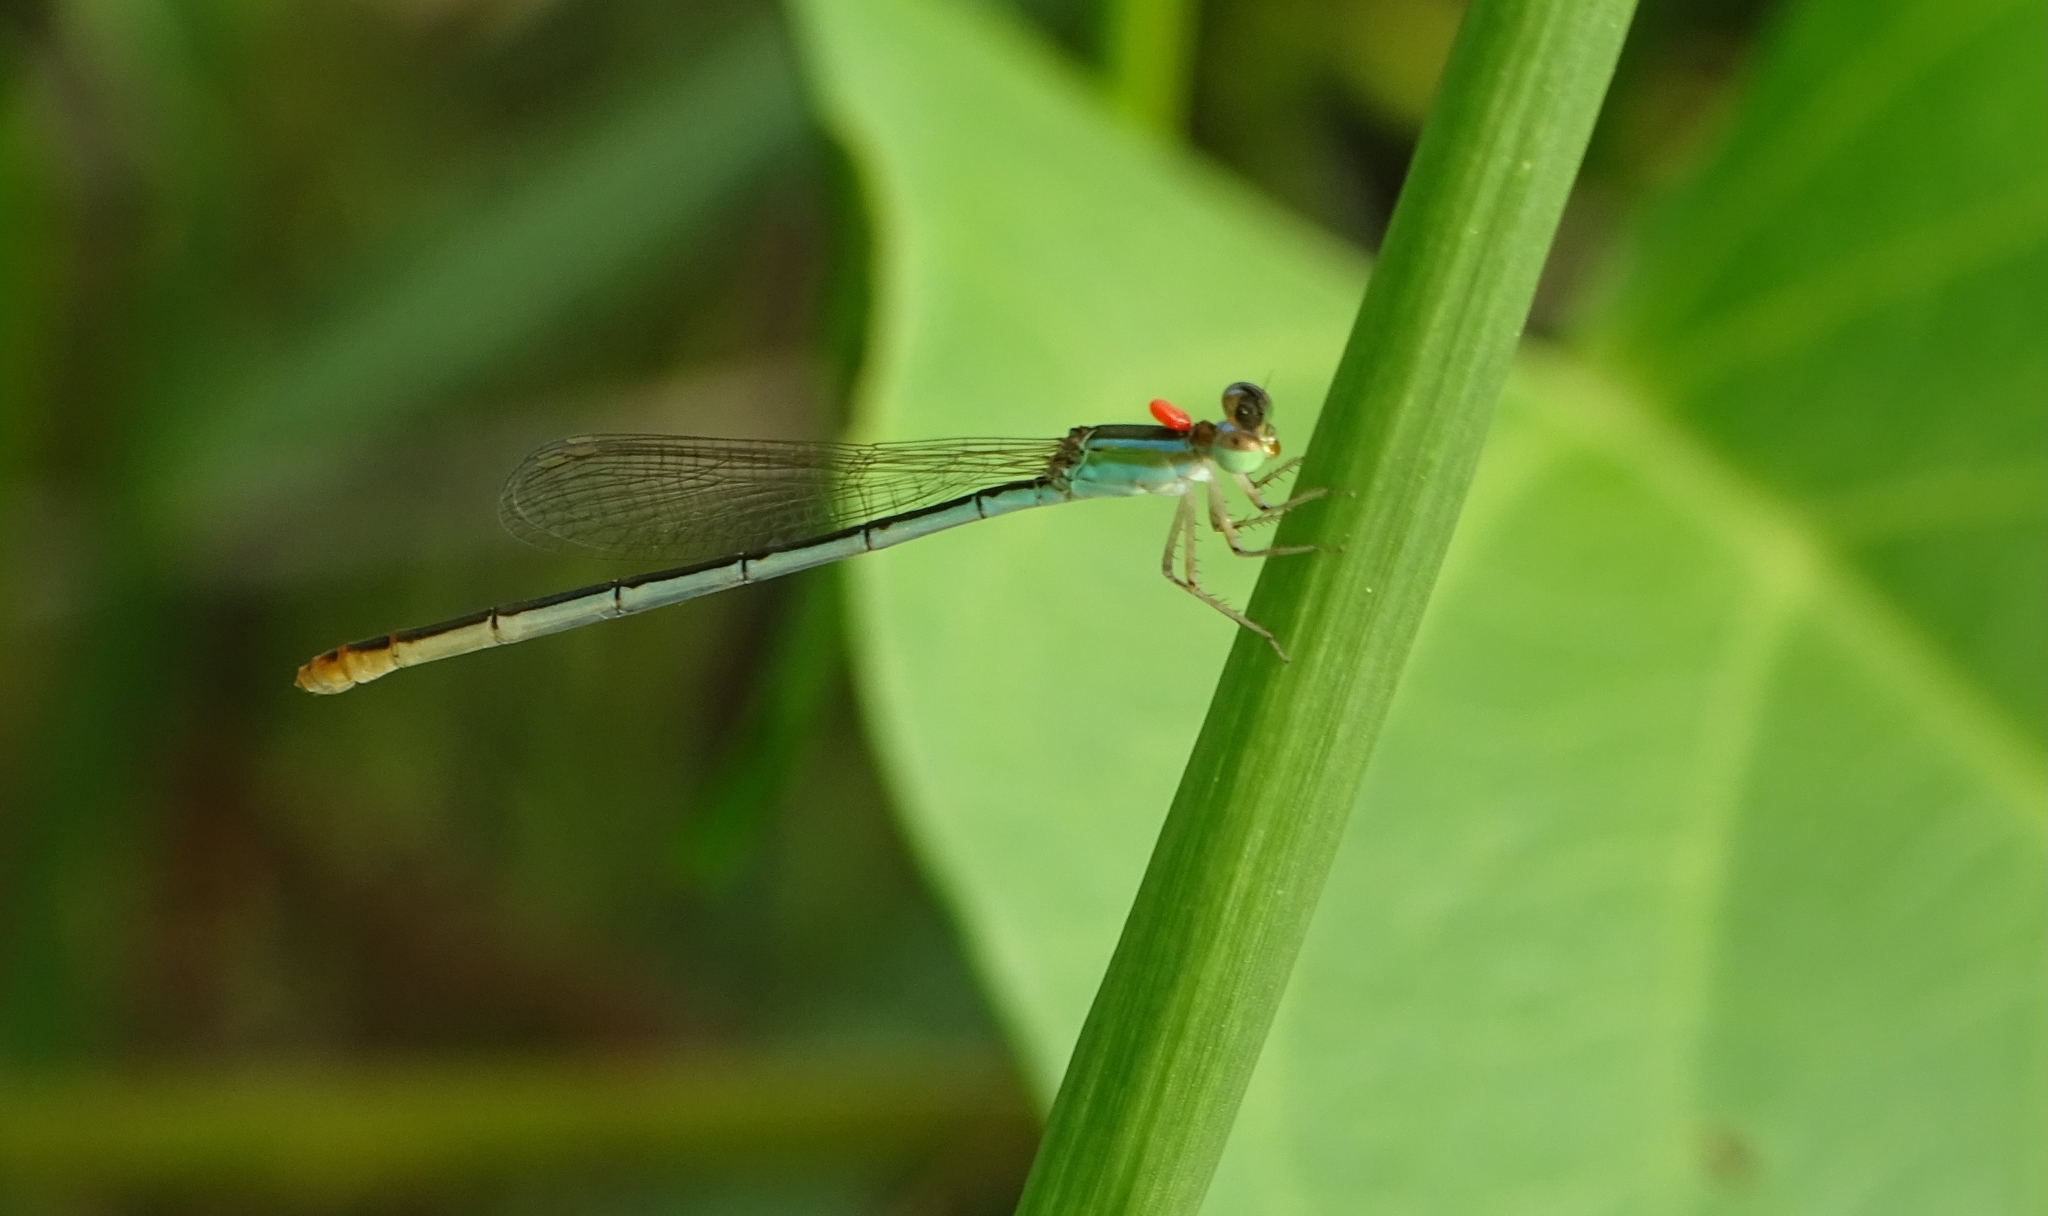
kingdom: Animalia
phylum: Arthropoda
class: Insecta
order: Odonata
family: Coenagrionidae
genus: Agriocnemis
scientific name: Agriocnemis pygmaea
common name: Pygmy wisp
